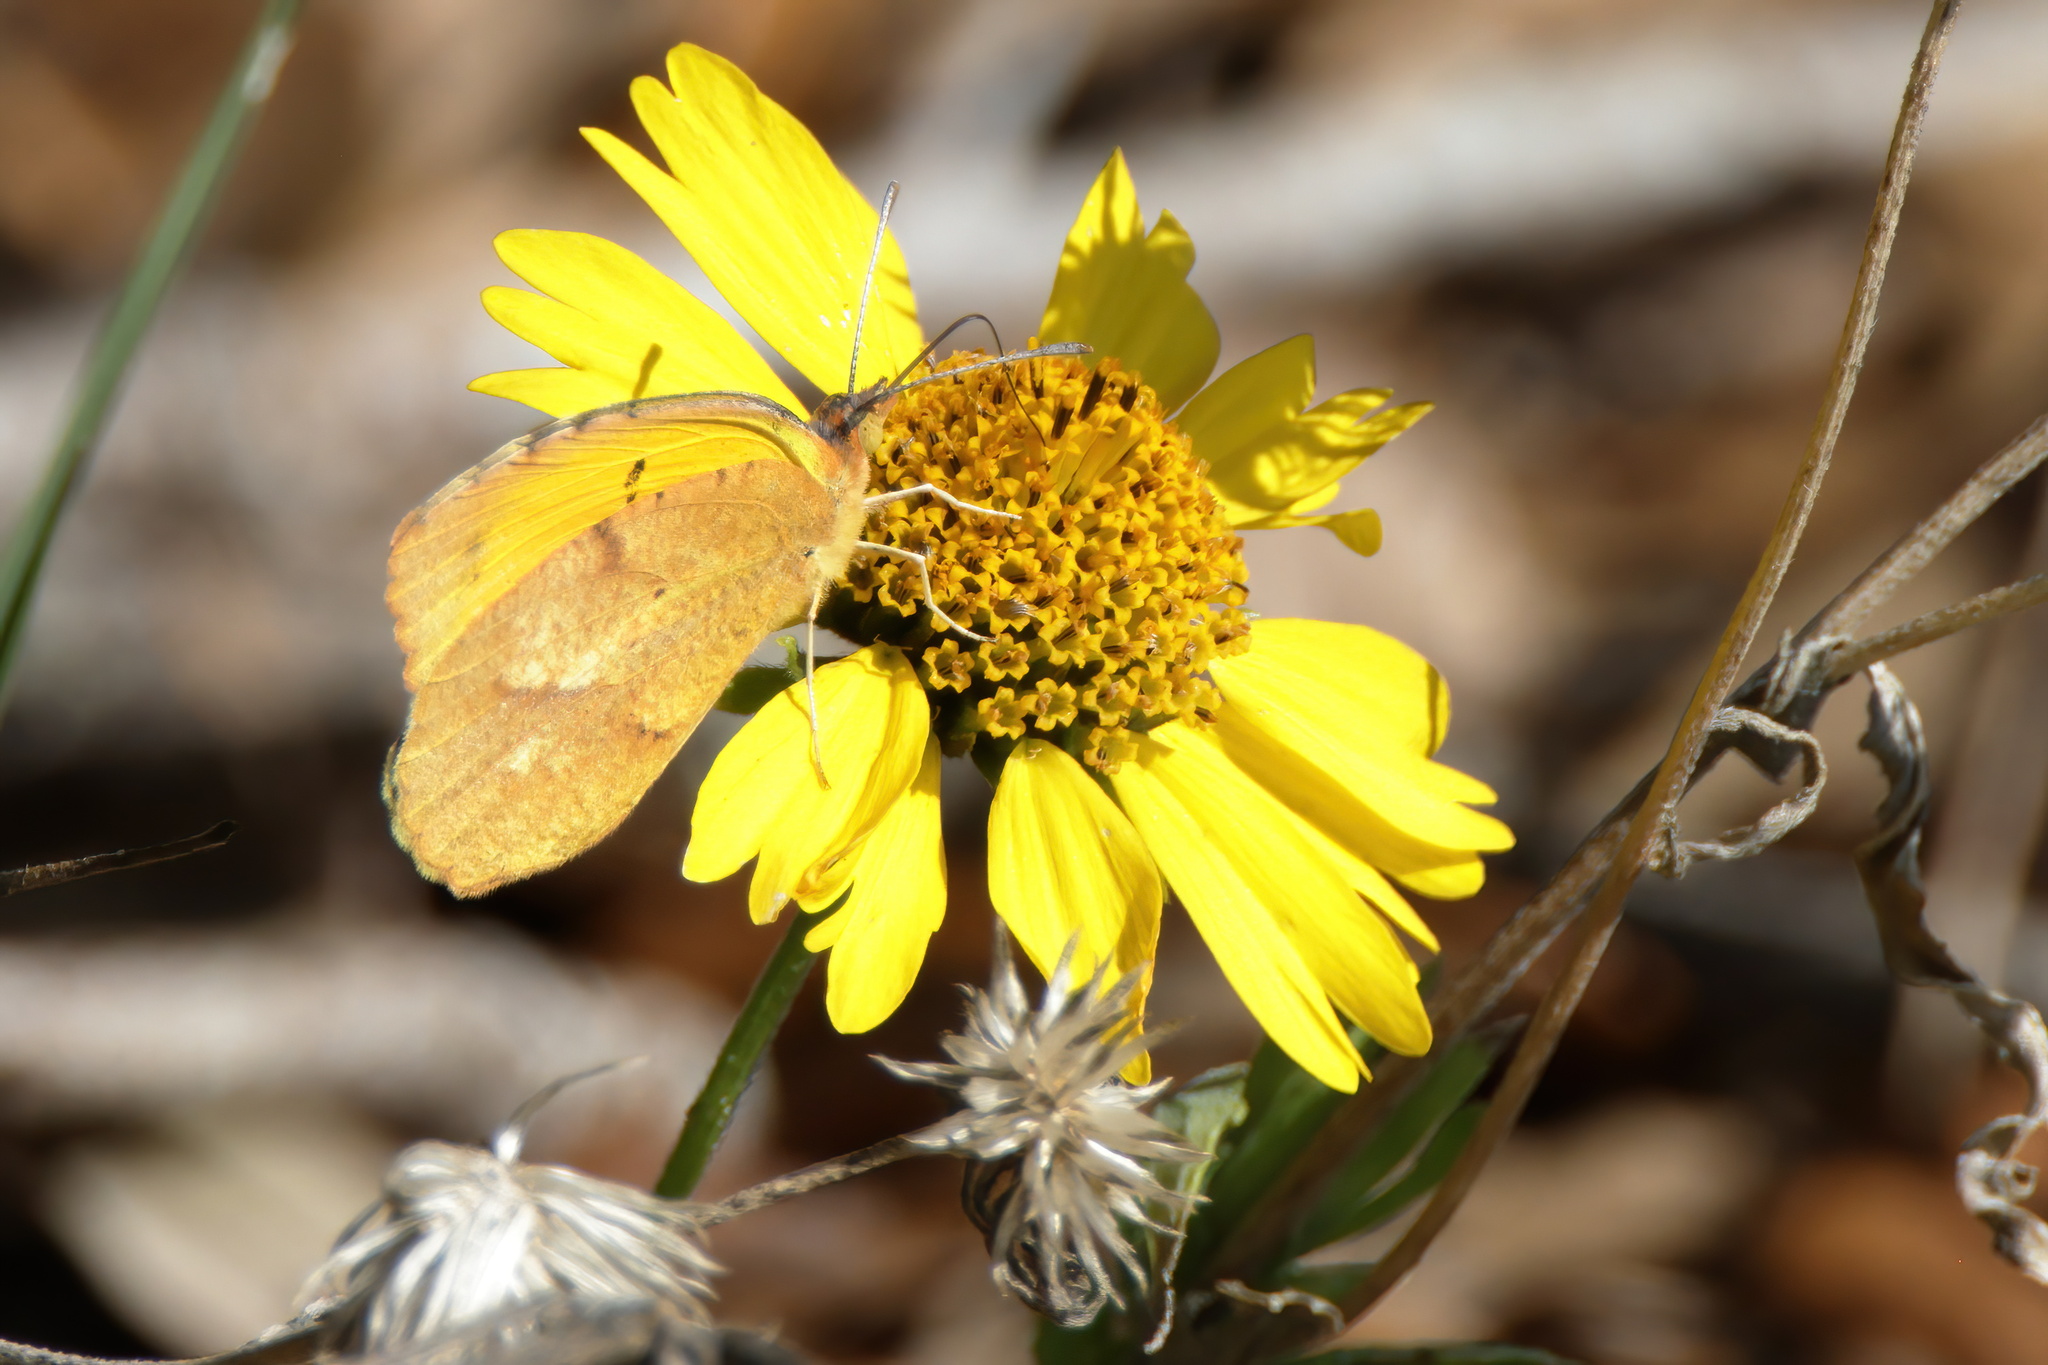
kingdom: Animalia
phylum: Arthropoda
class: Insecta
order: Lepidoptera
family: Pieridae
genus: Abaeis
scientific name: Abaeis nicippe
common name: Sleepy orange
